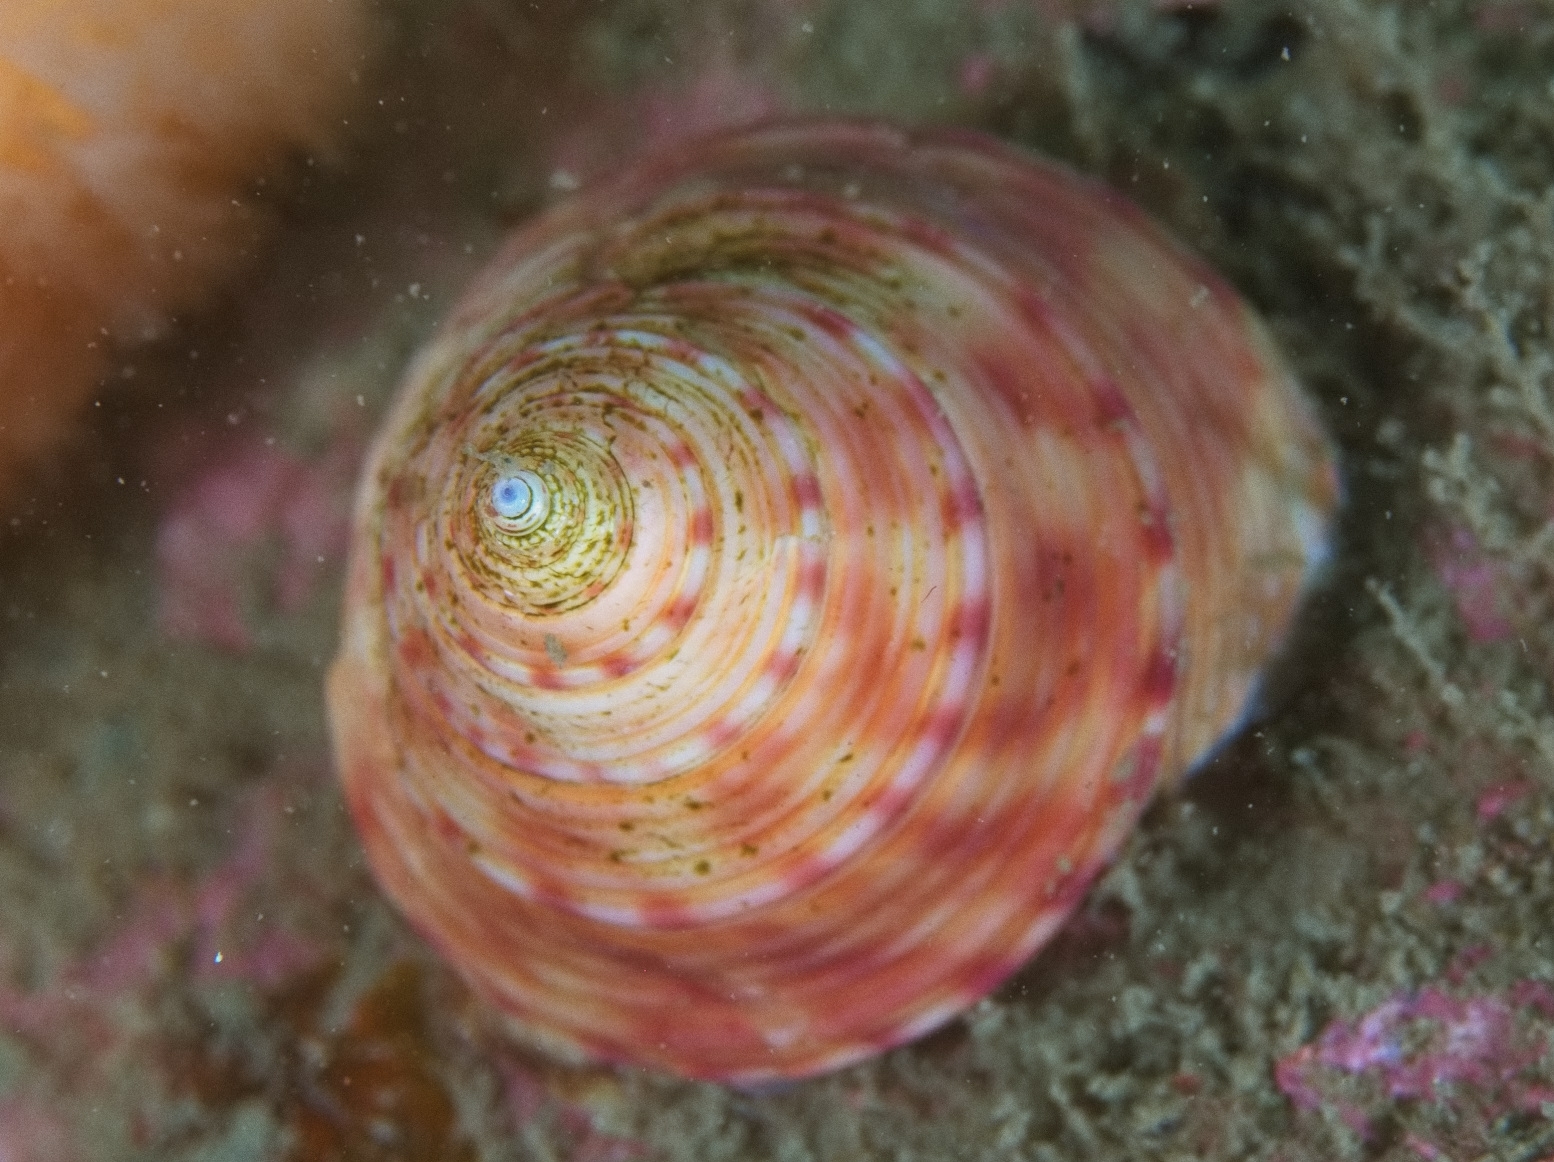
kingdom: Animalia
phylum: Mollusca
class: Gastropoda
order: Trochida
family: Calliostomatidae
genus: Calliostoma
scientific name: Calliostoma zizyphinum
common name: Painted top shell
